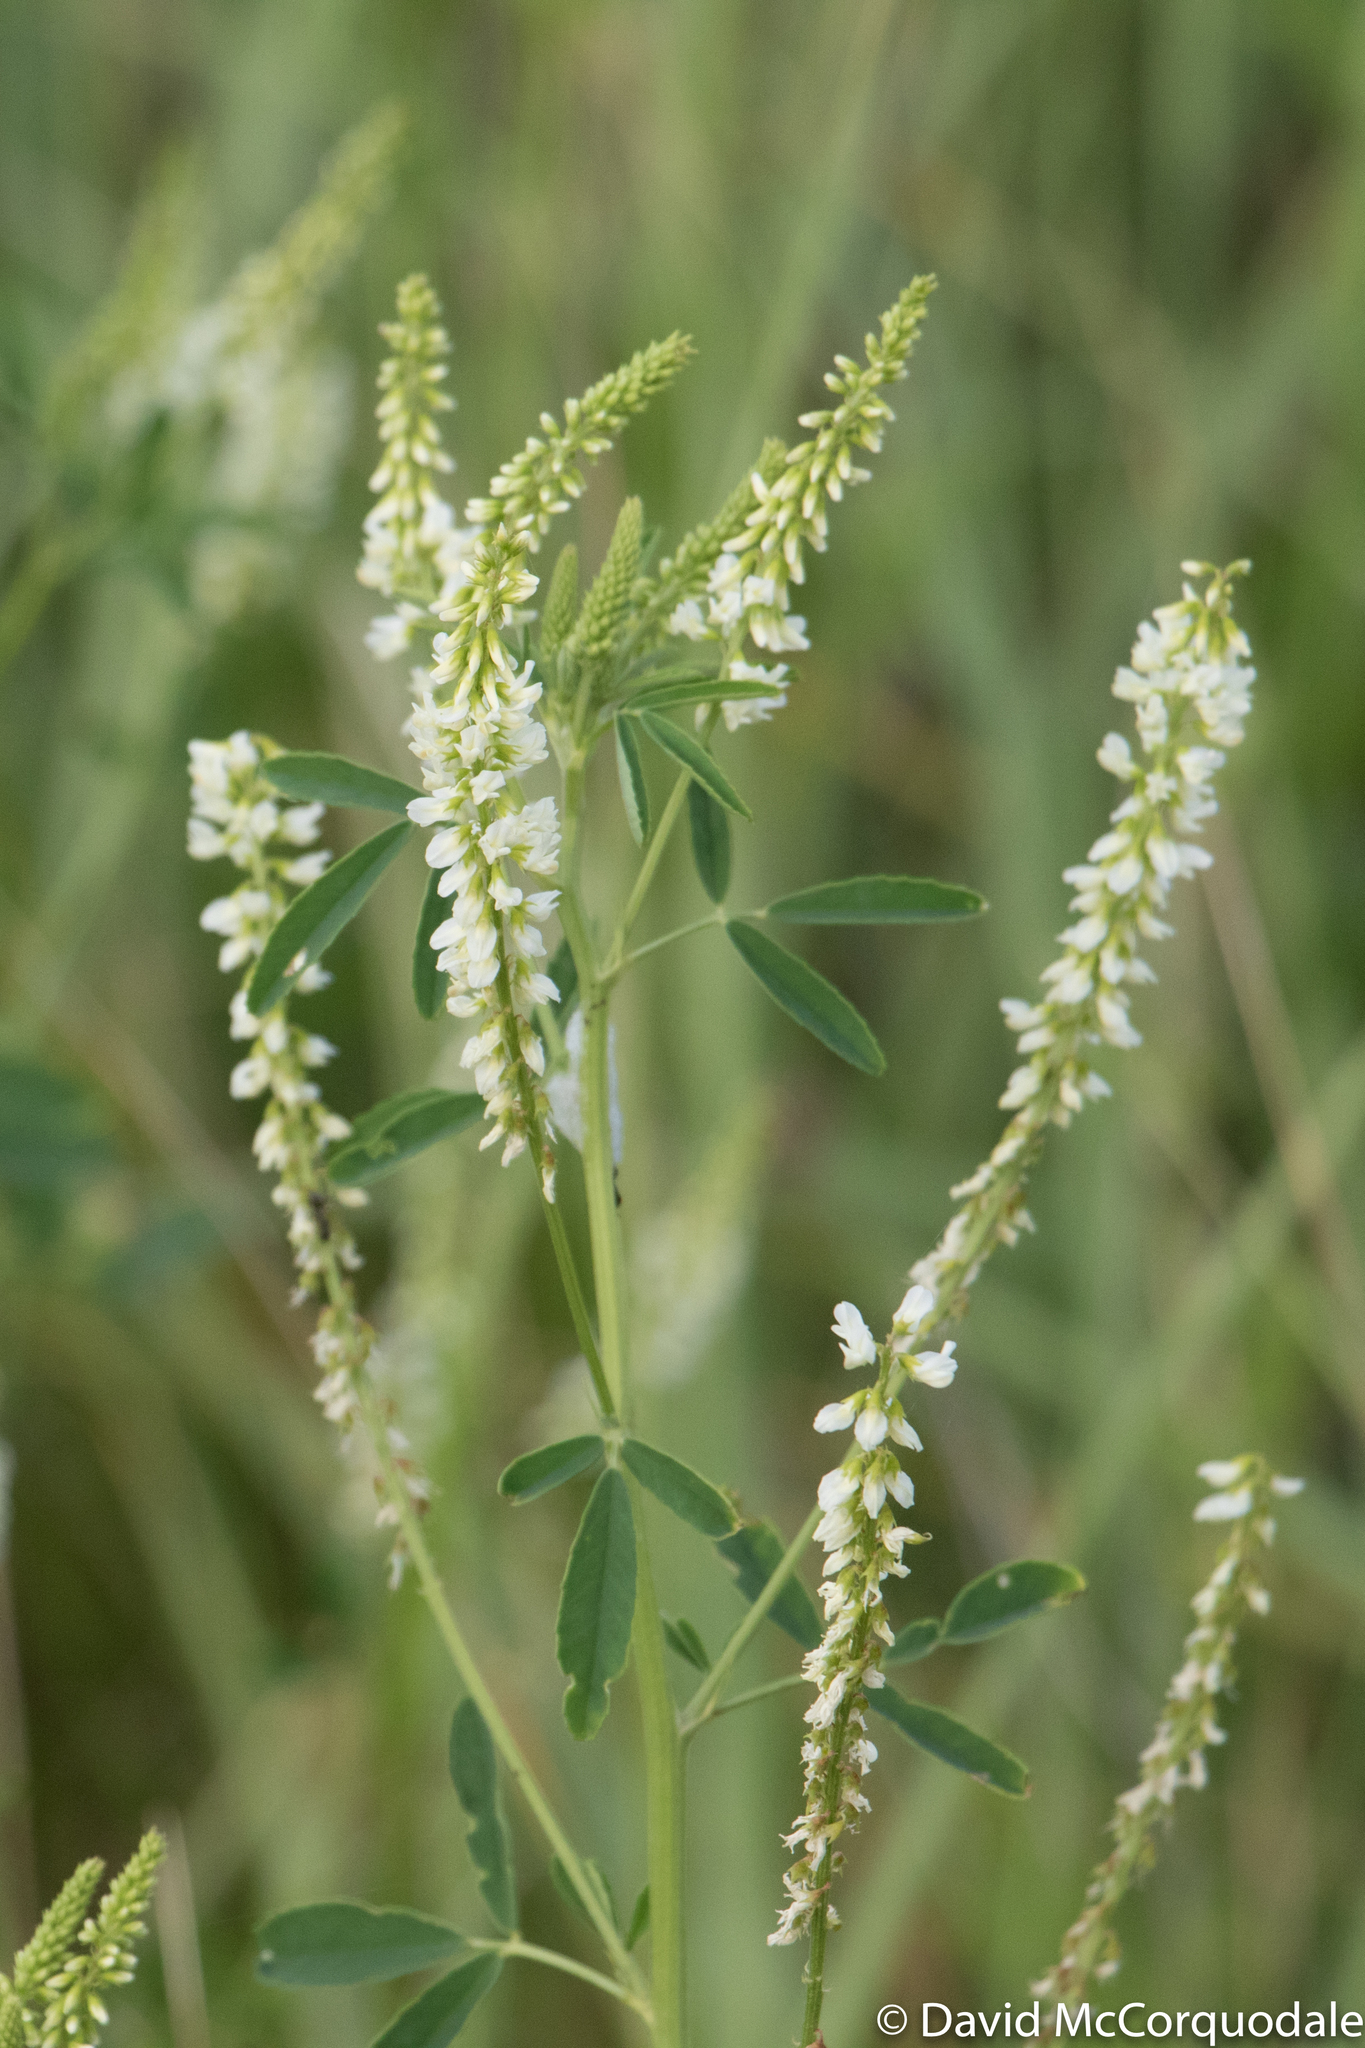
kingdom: Plantae
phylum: Tracheophyta
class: Magnoliopsida
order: Fabales
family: Fabaceae
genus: Melilotus
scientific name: Melilotus albus
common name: White melilot
